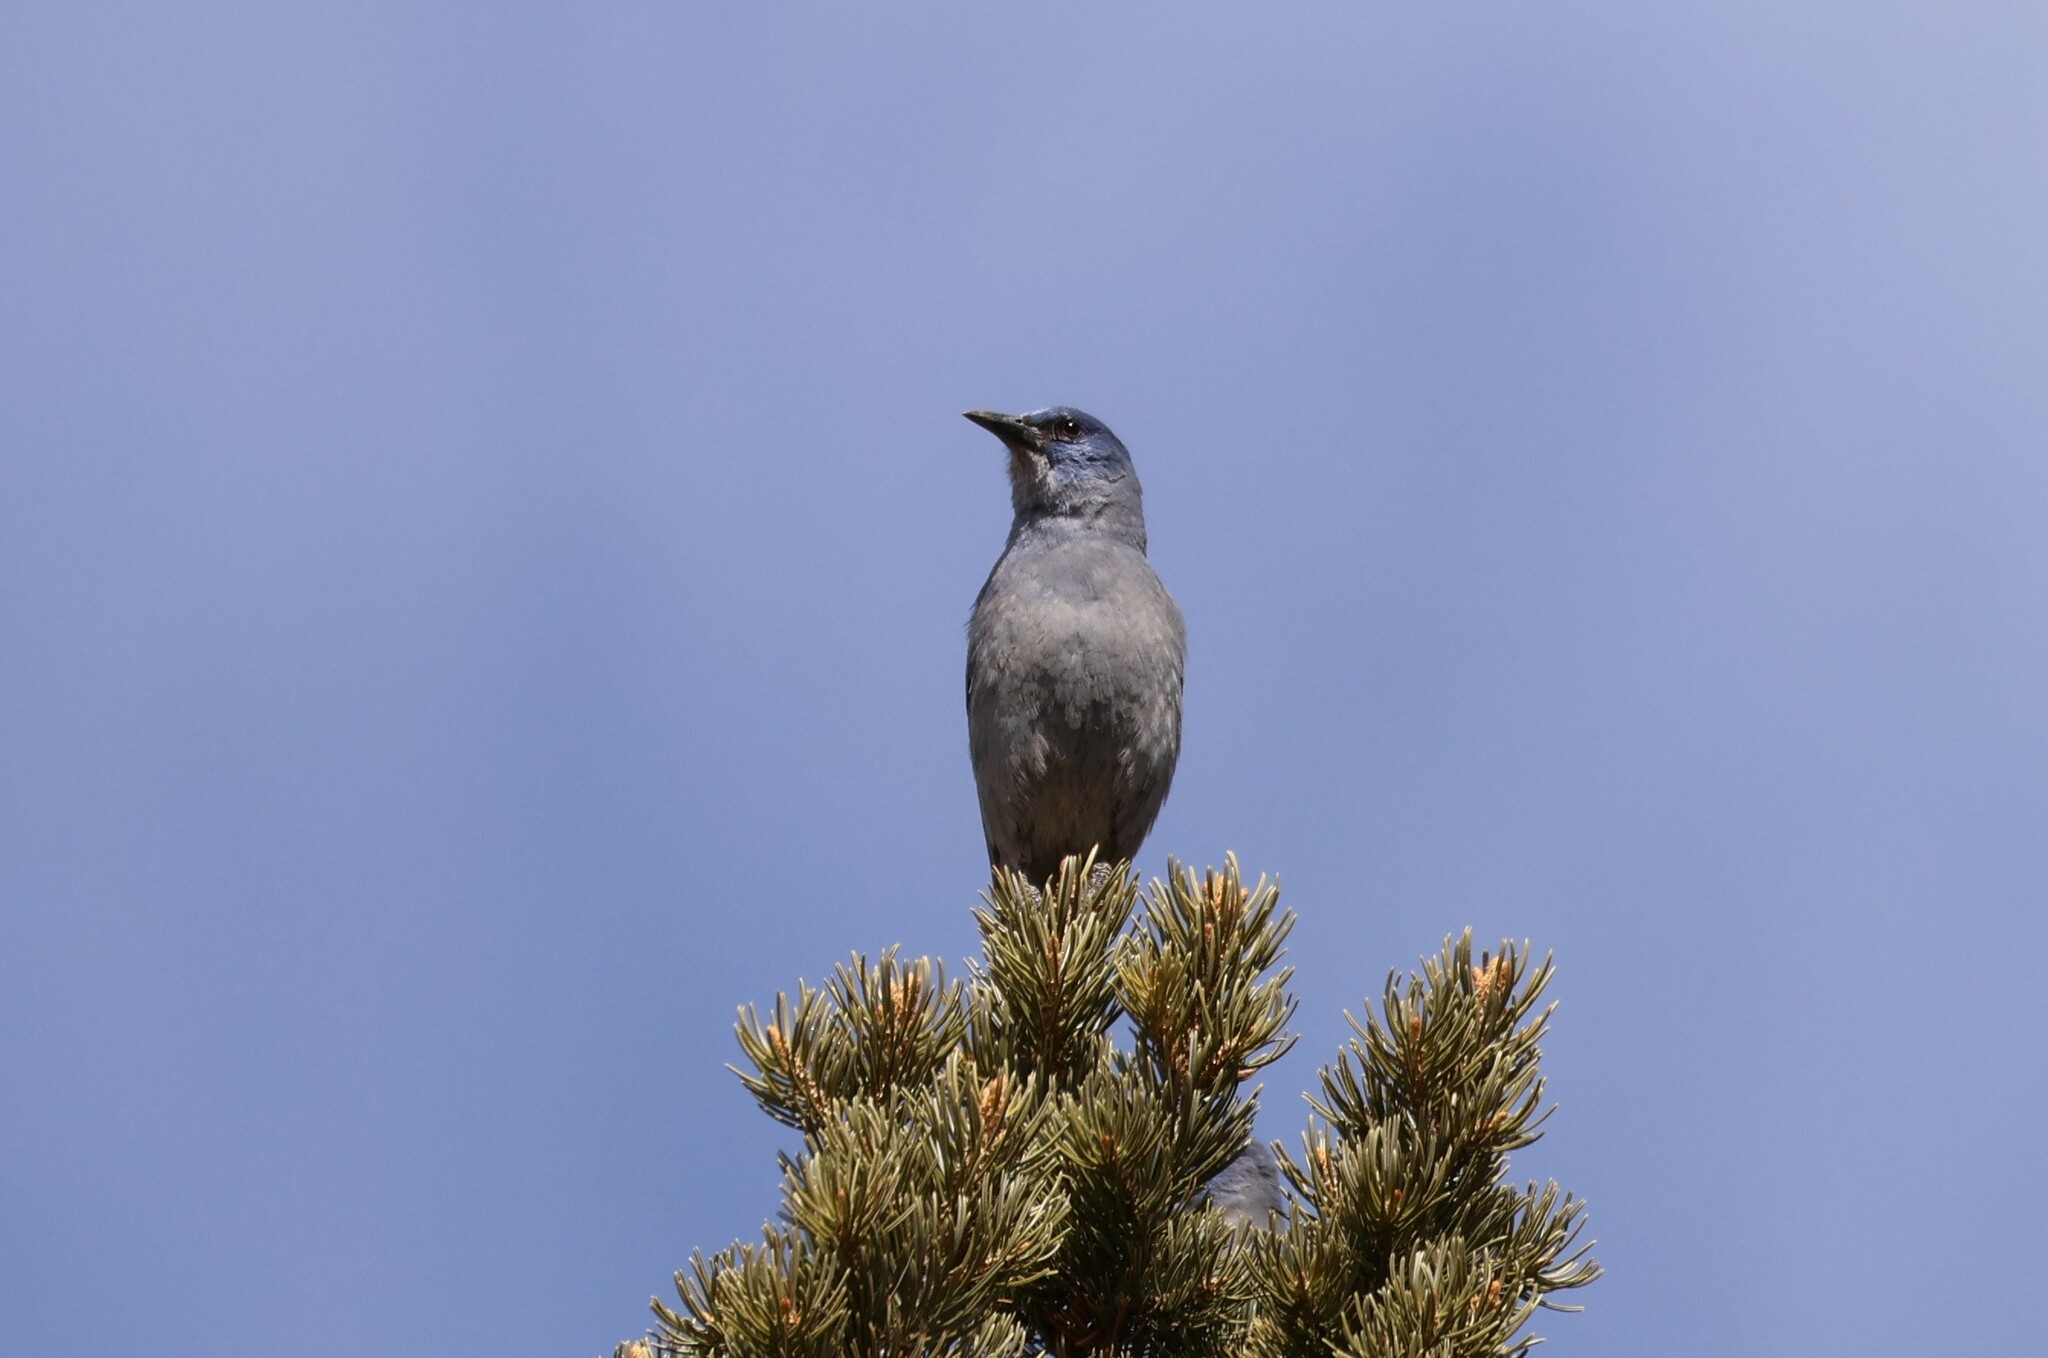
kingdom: Animalia
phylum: Chordata
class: Aves
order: Passeriformes
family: Corvidae
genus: Gymnorhinus
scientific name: Gymnorhinus cyanocephalus
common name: Pinyon jay
